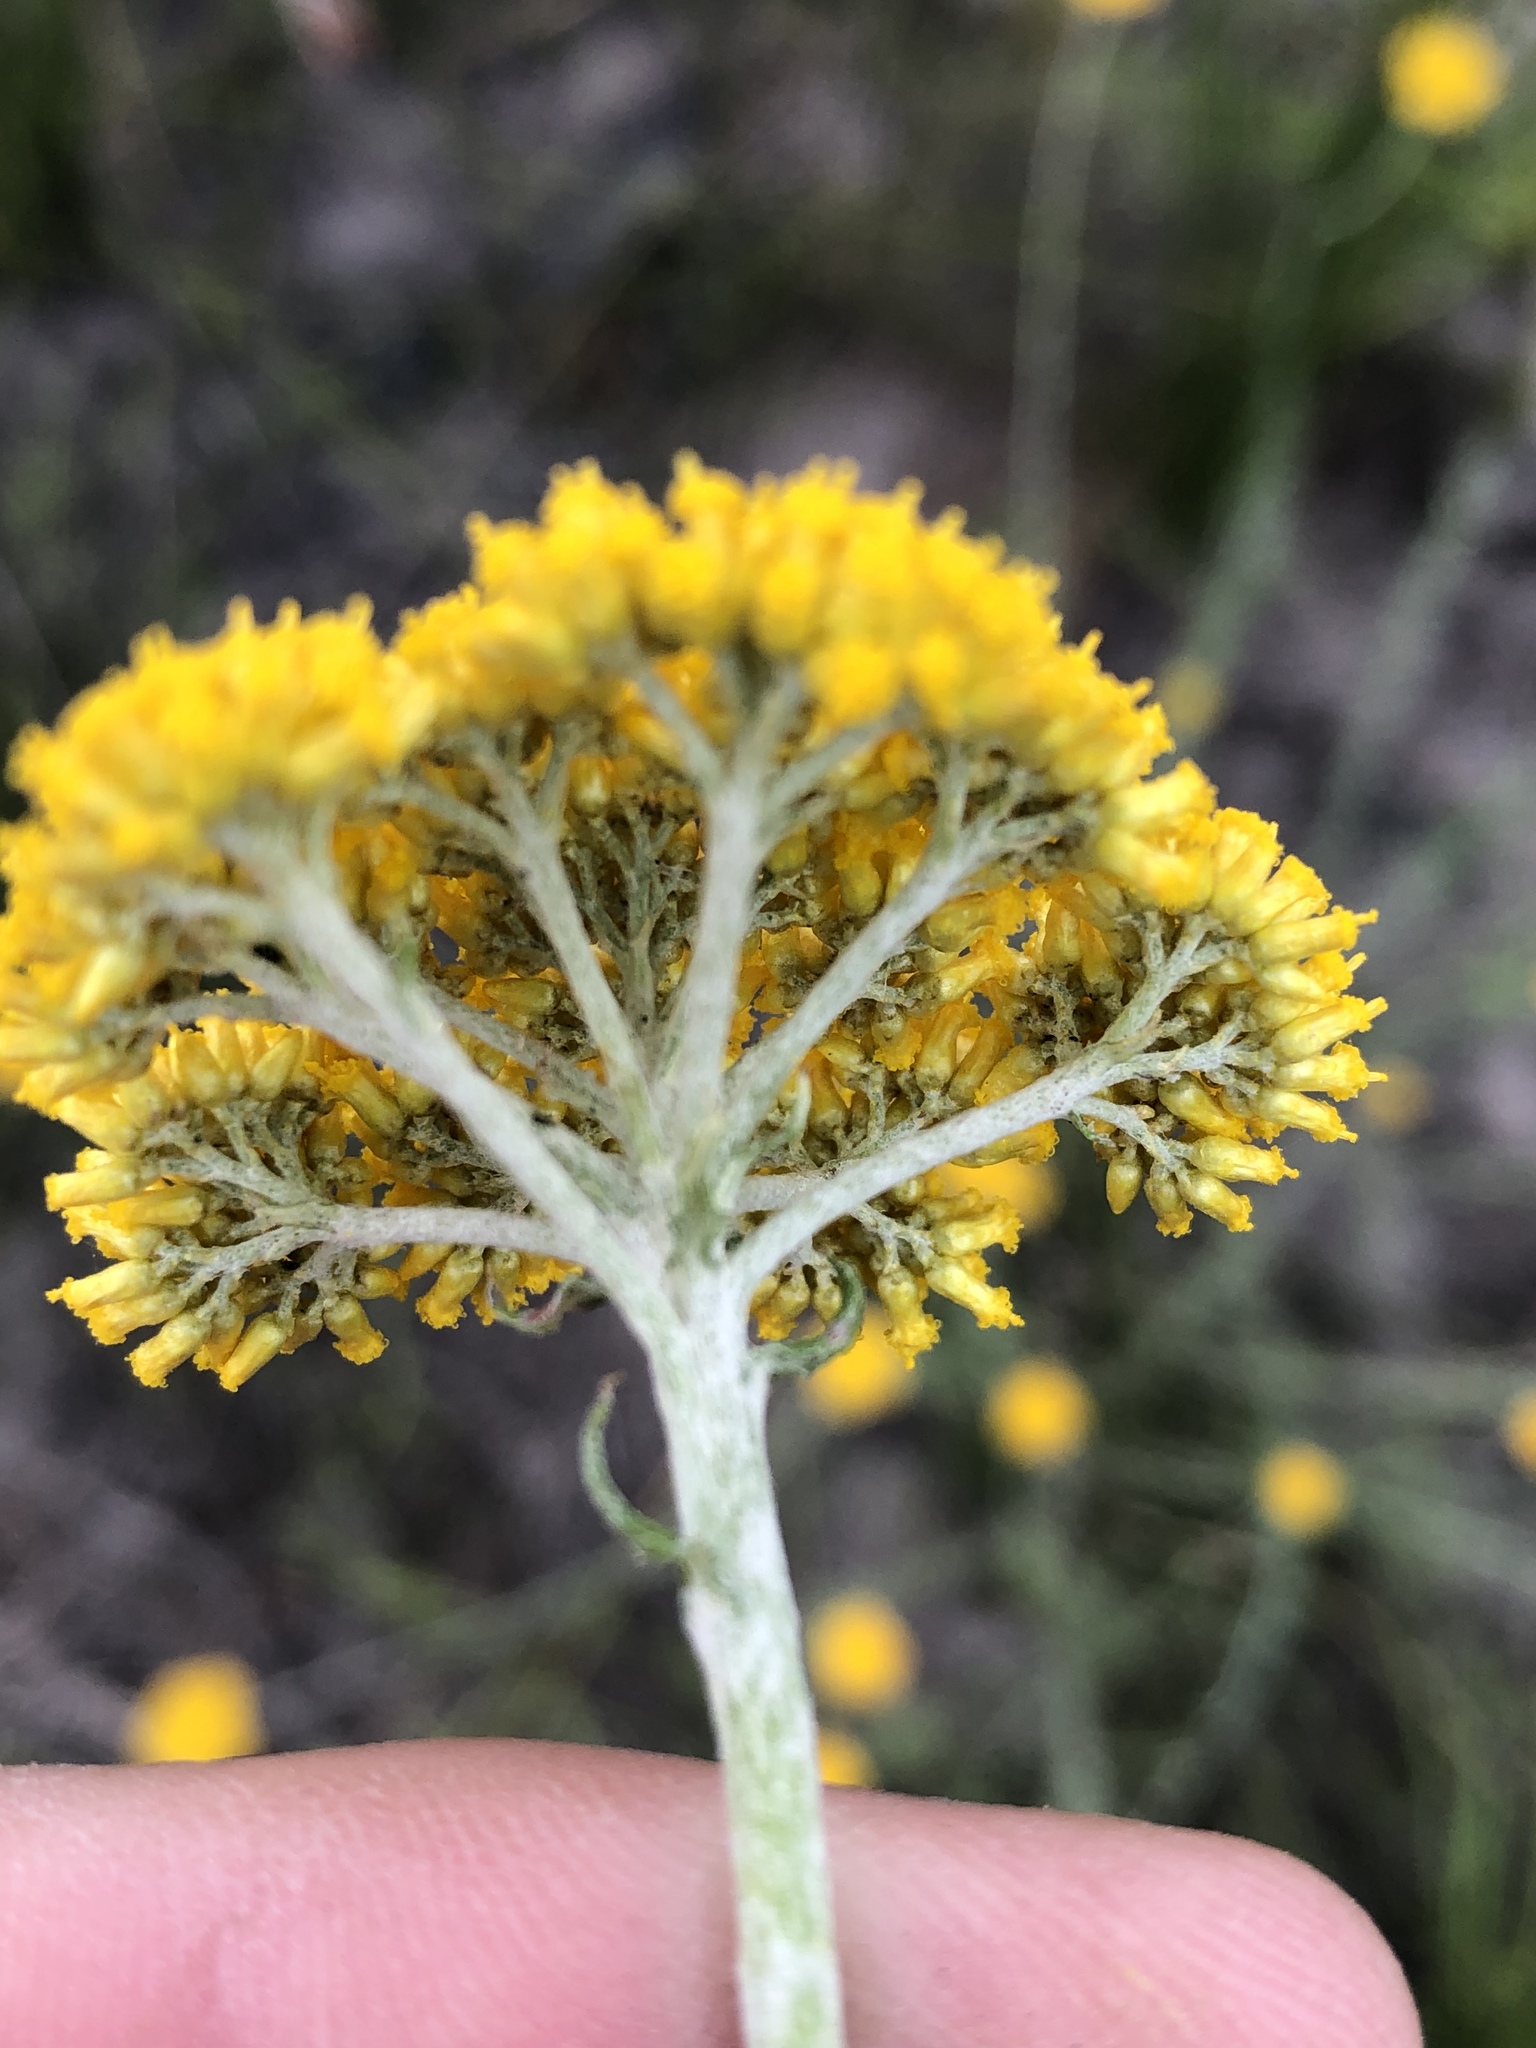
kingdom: Plantae
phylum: Tracheophyta
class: Magnoliopsida
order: Asterales
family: Asteraceae
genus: Helichrysum
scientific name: Helichrysum cymosum
